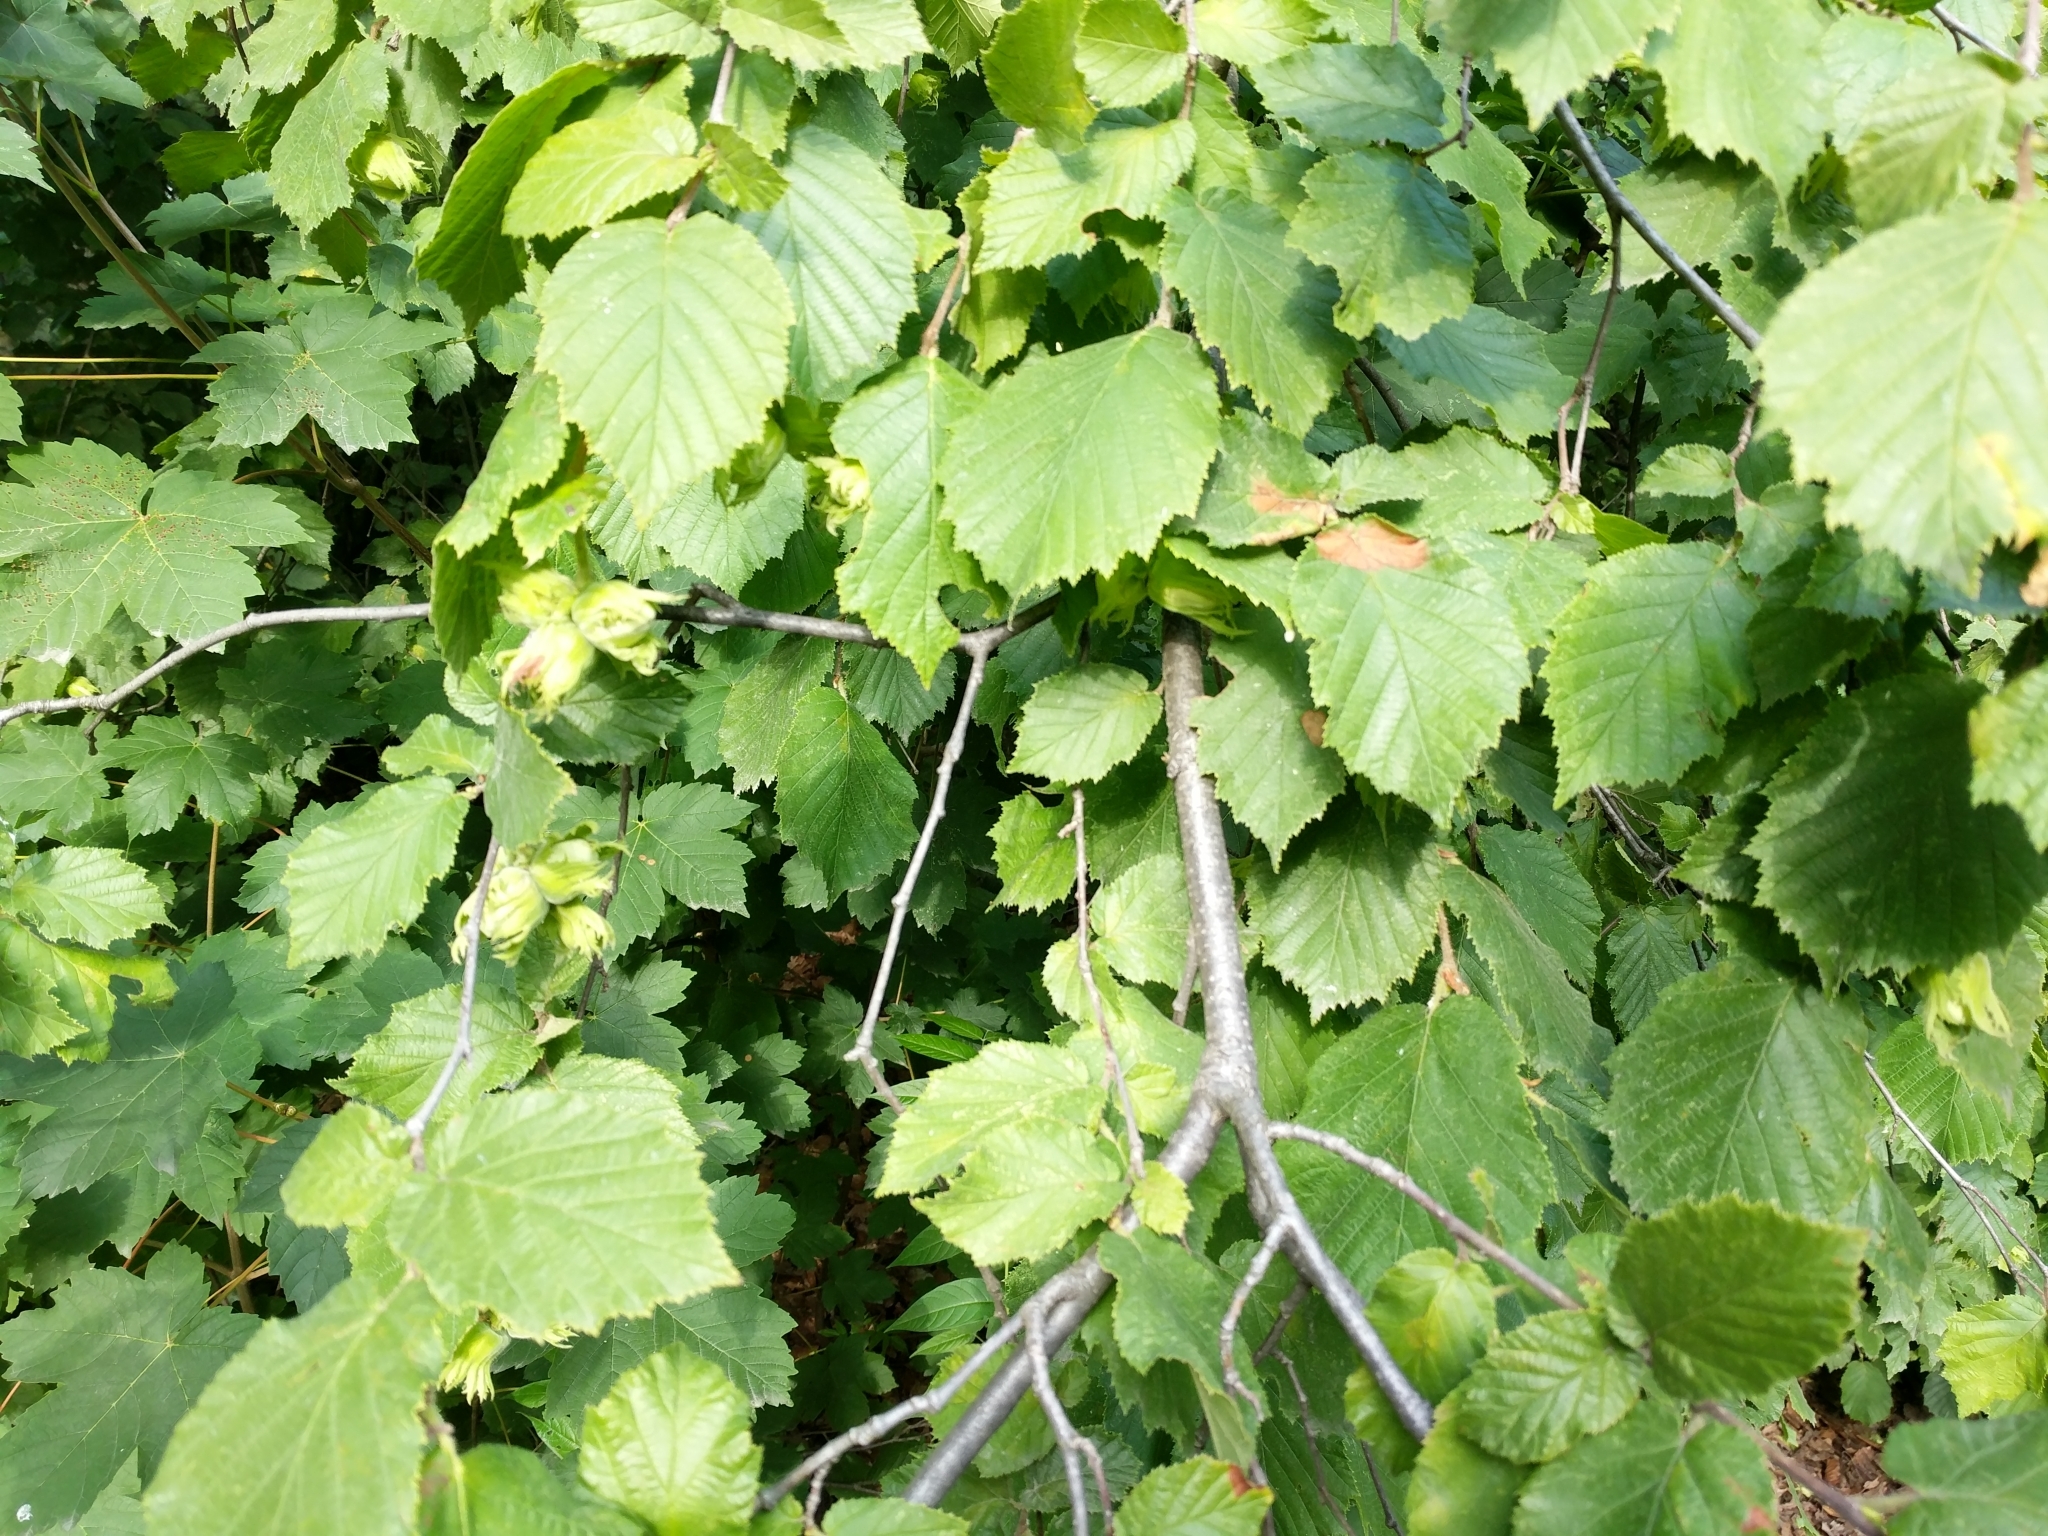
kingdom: Plantae
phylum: Tracheophyta
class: Magnoliopsida
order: Fagales
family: Betulaceae
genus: Corylus
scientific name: Corylus avellana
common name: European hazel
